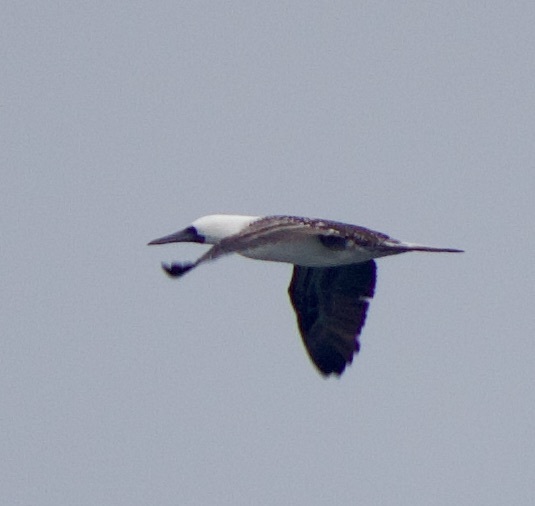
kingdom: Animalia
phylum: Chordata
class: Aves
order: Suliformes
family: Sulidae
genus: Sula
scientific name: Sula variegata
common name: Peruvian booby
